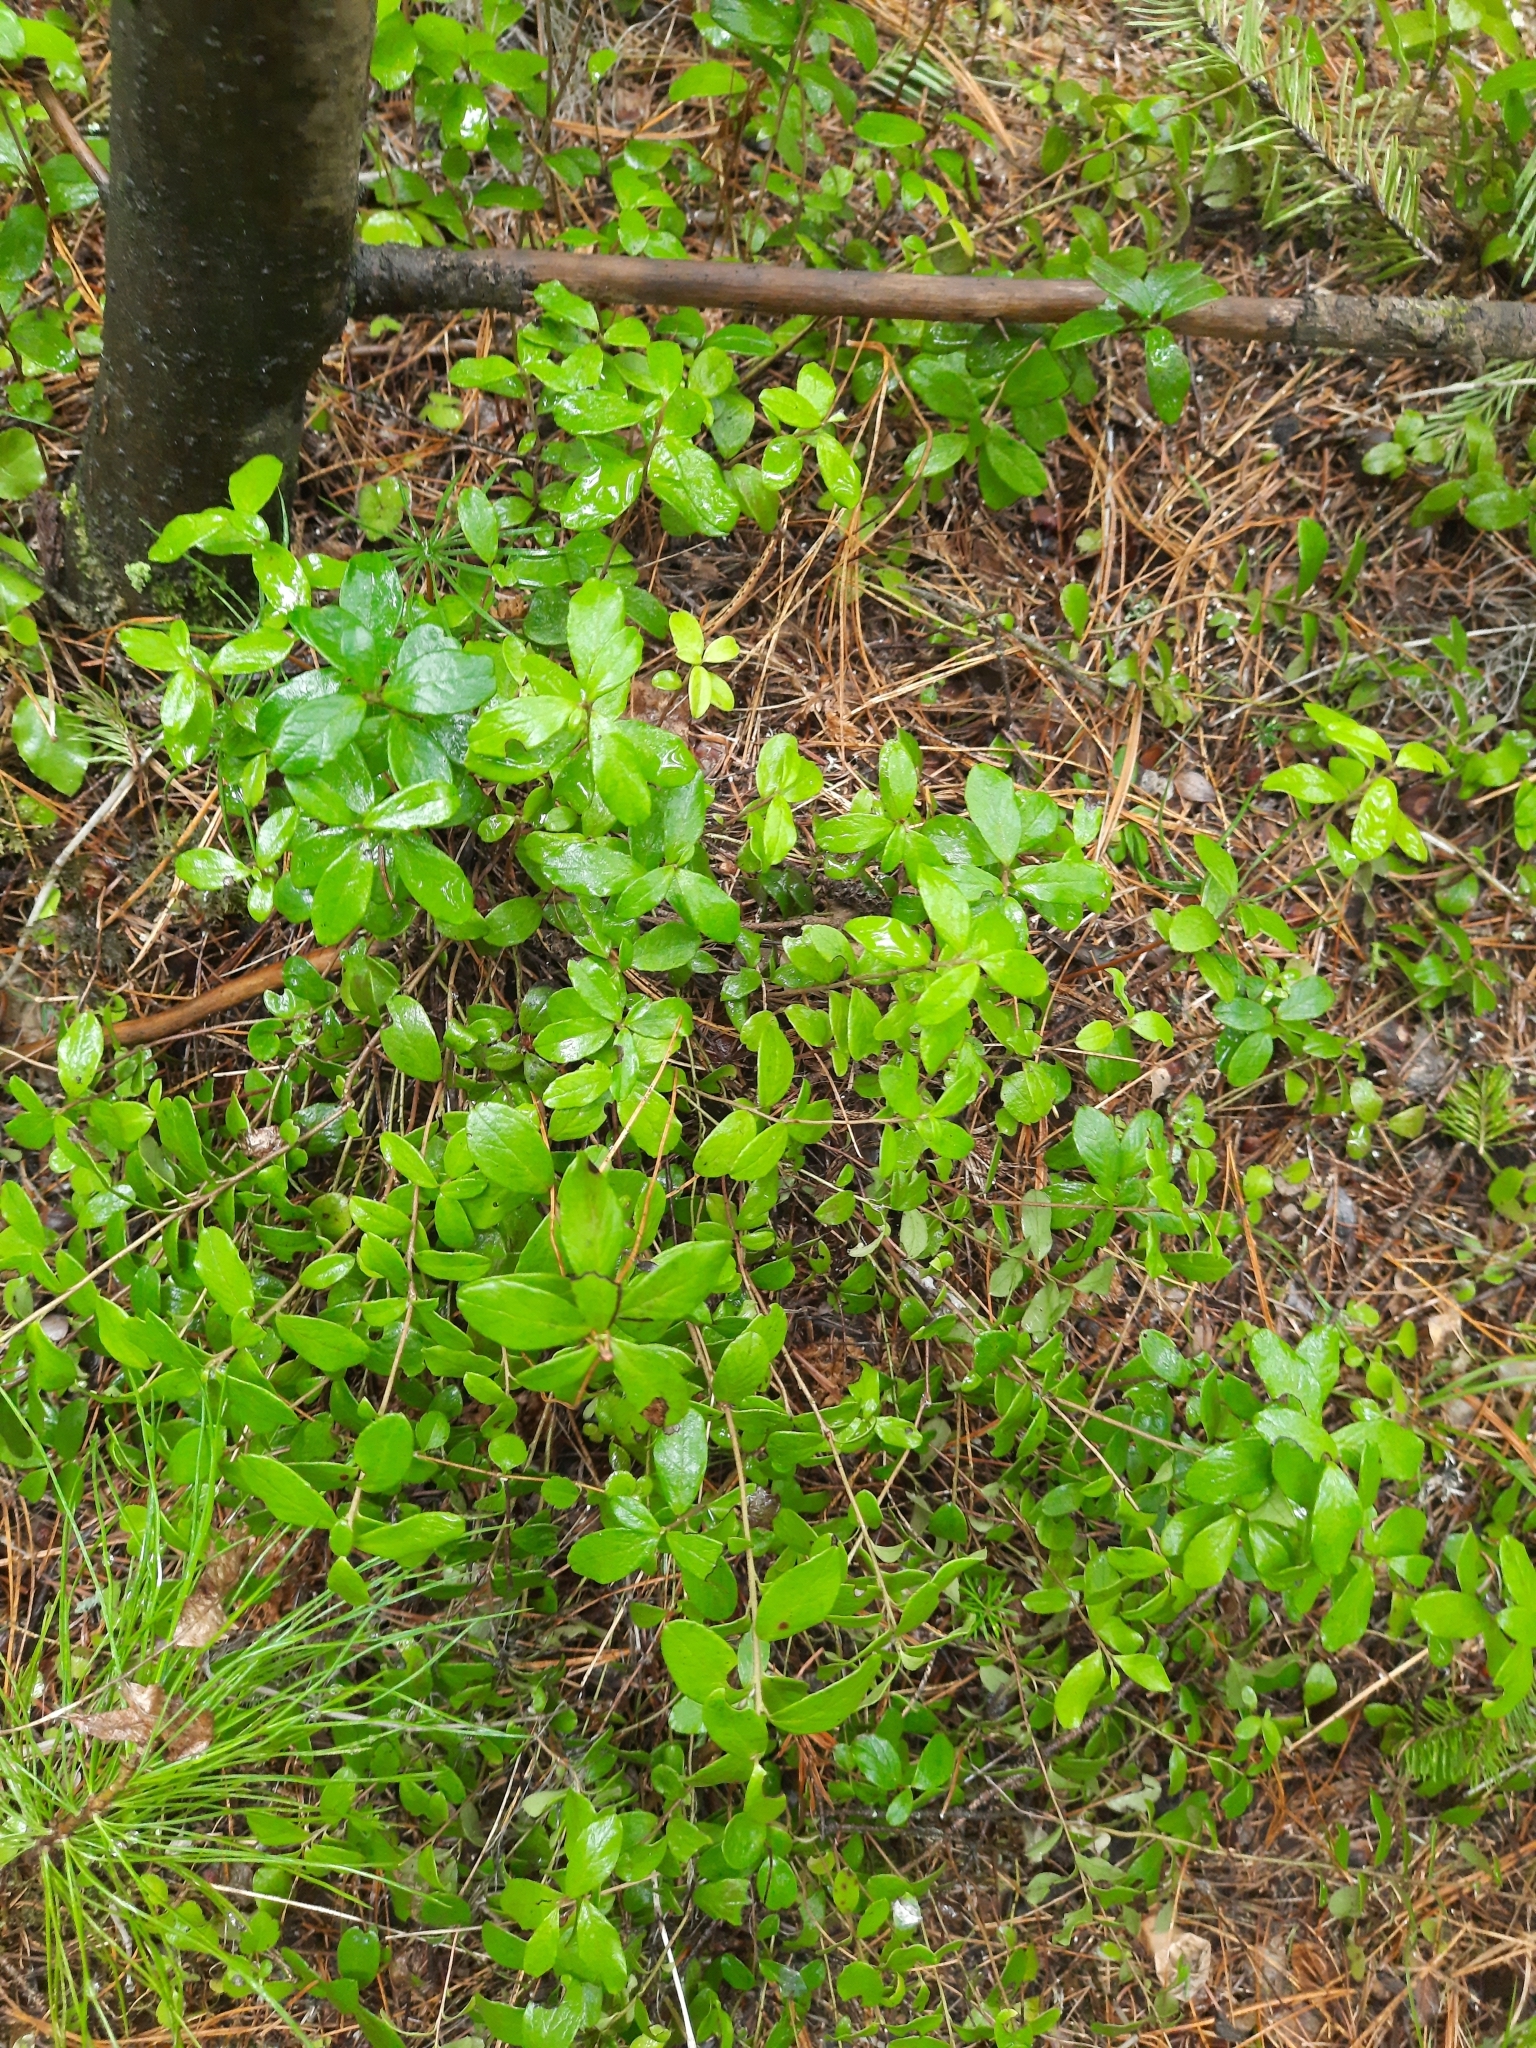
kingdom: Plantae
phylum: Tracheophyta
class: Magnoliopsida
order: Ericales
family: Ericaceae
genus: Vaccinium
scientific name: Vaccinium vitis-idaea
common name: Cowberry
